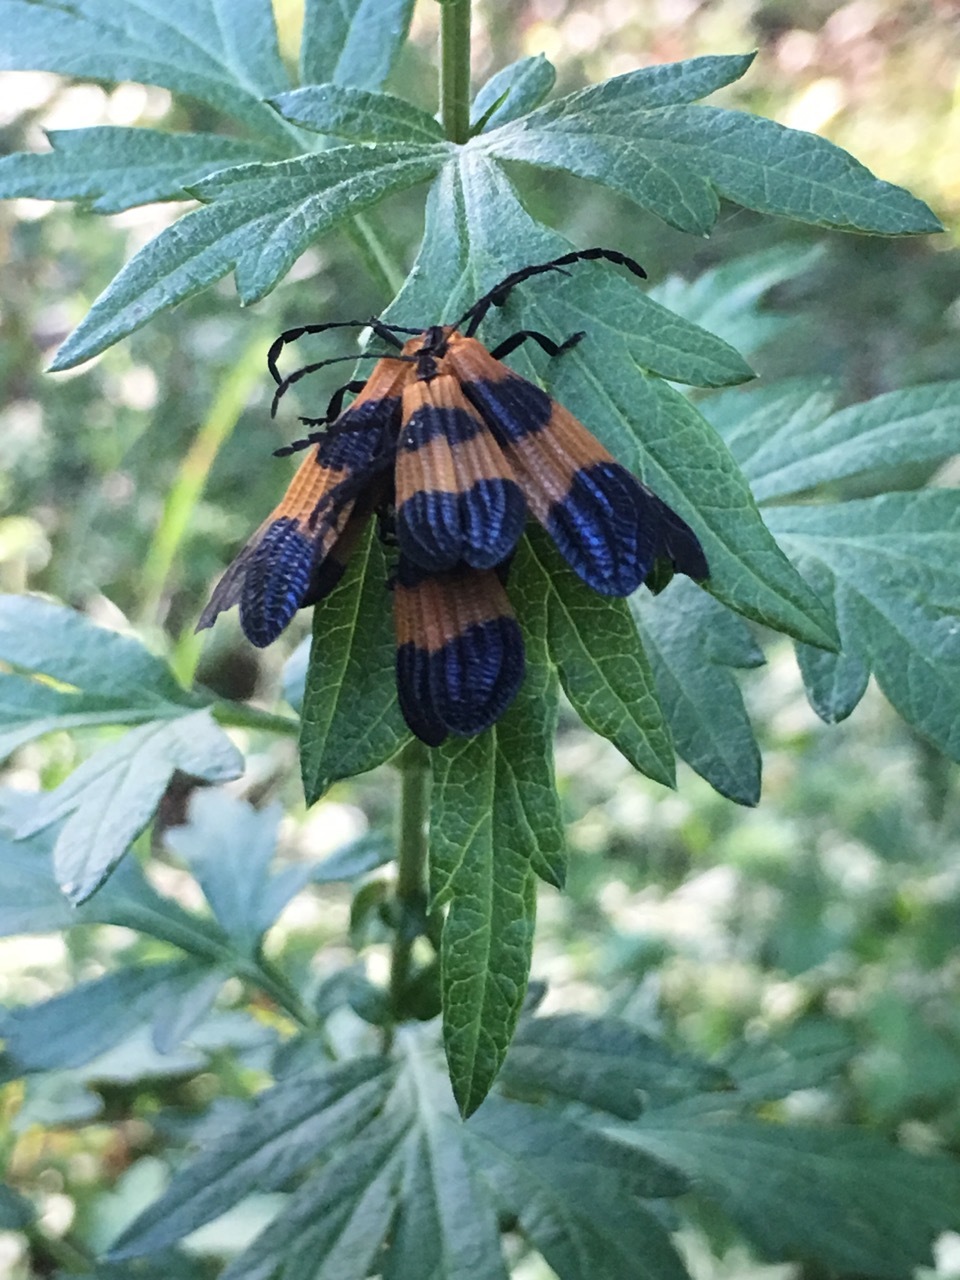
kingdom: Animalia
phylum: Arthropoda
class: Insecta
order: Coleoptera
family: Lycidae
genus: Calopteron
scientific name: Calopteron
